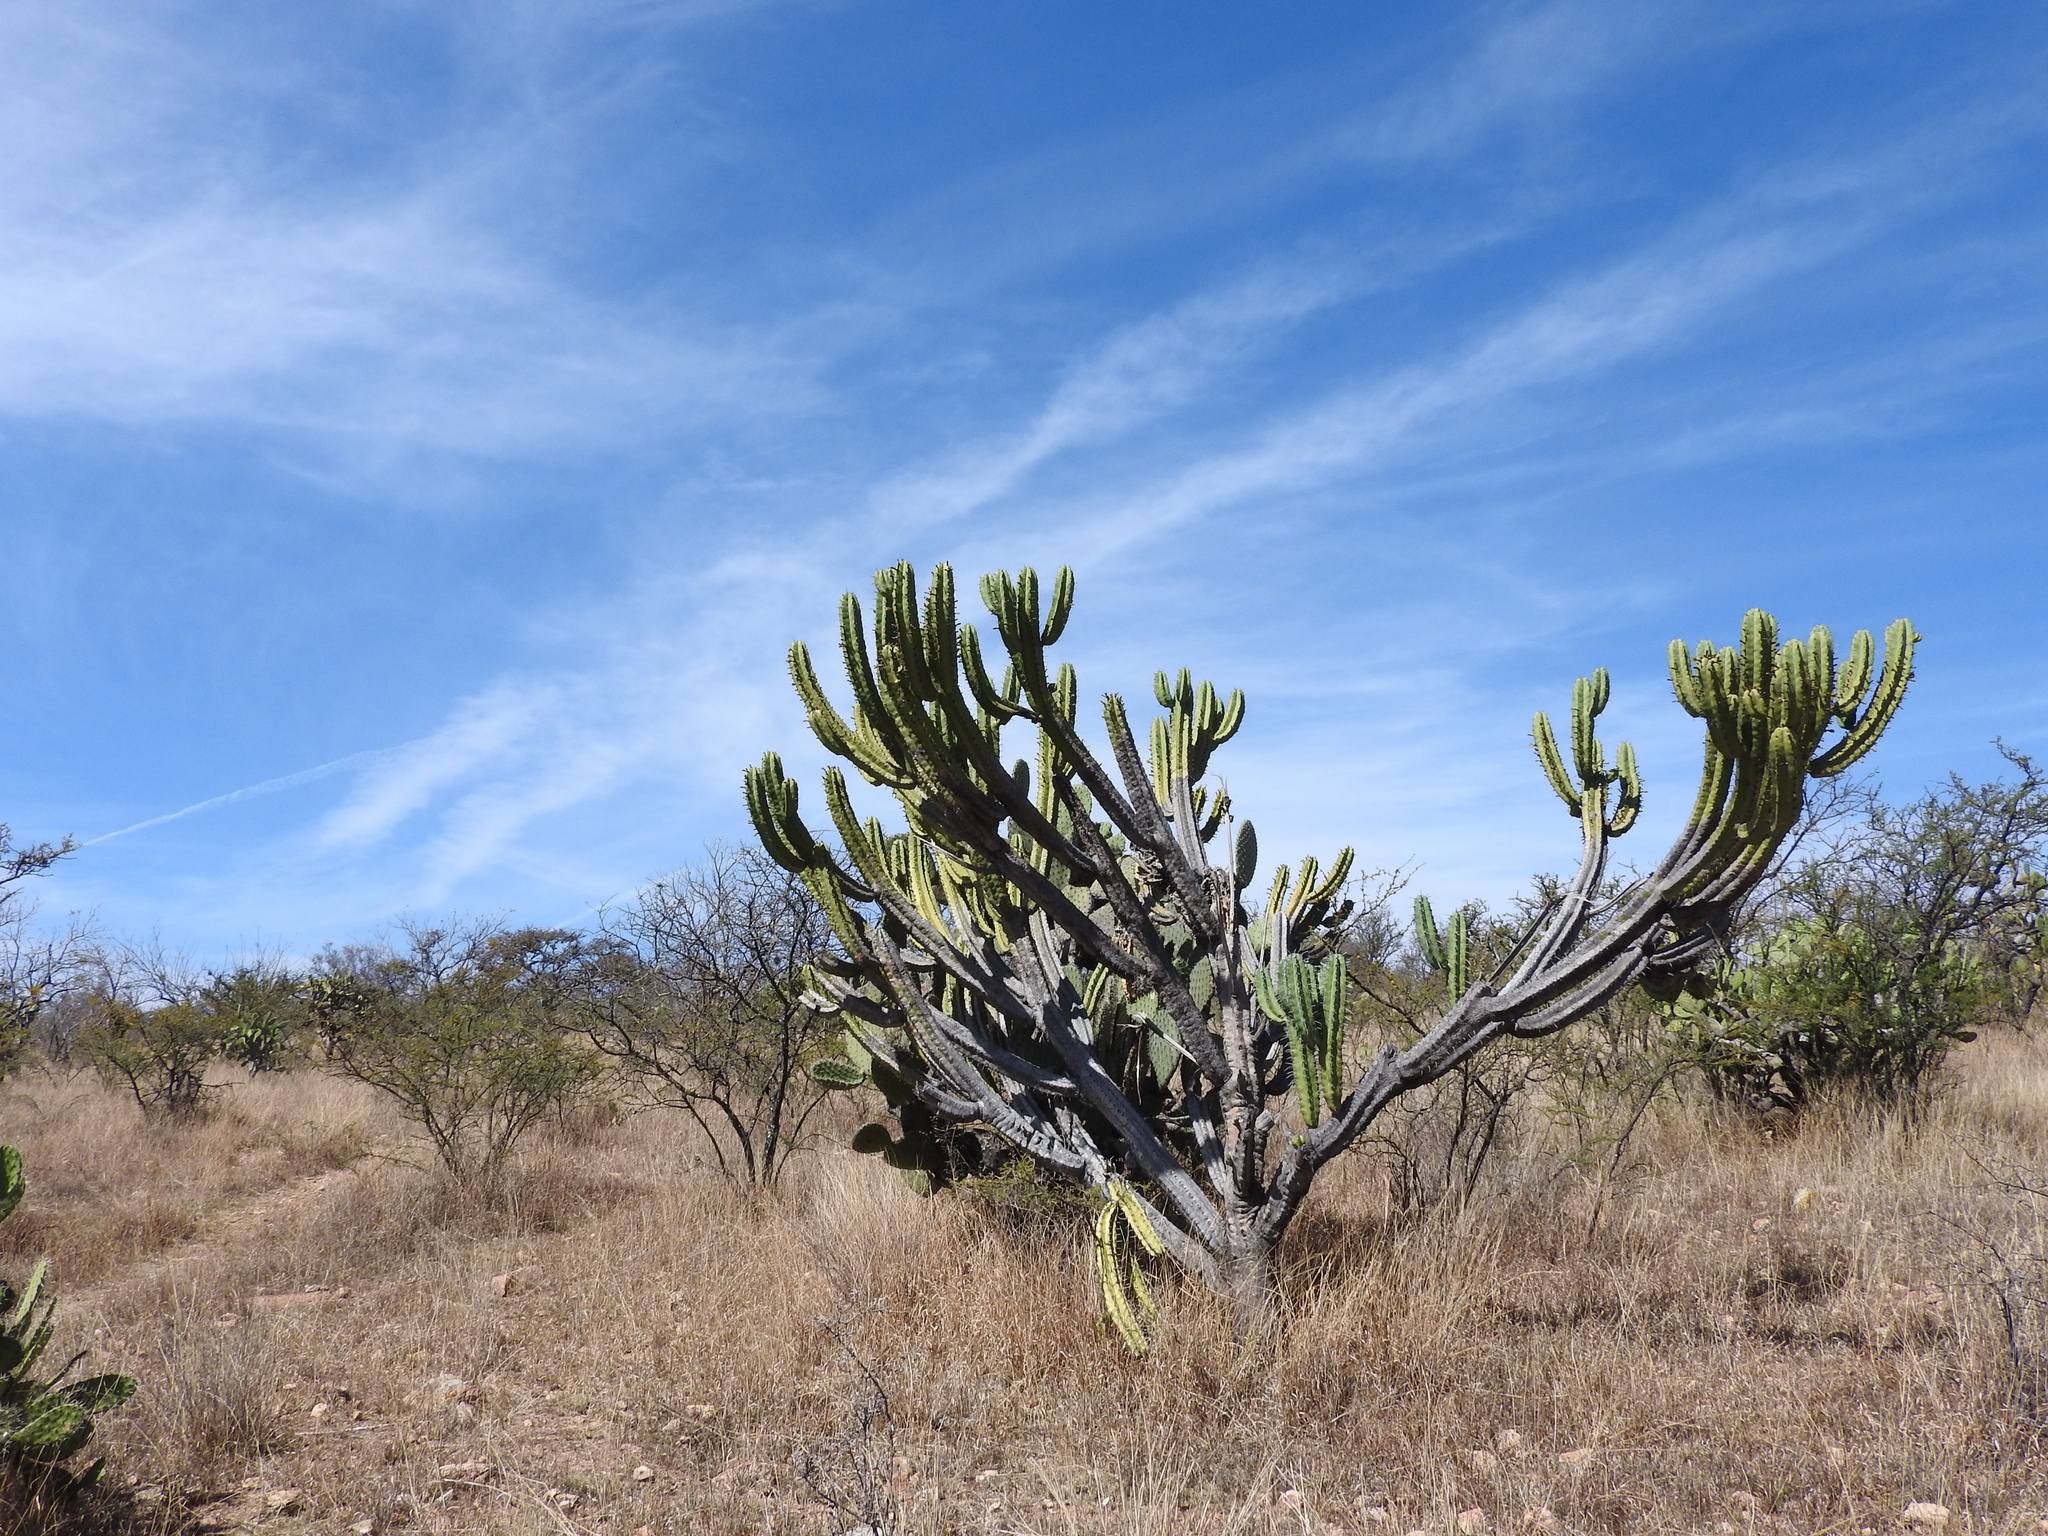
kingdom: Plantae
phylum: Tracheophyta
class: Magnoliopsida
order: Caryophyllales
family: Cactaceae
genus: Myrtillocactus
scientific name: Myrtillocactus geometrizans
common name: Bilberry cactus
